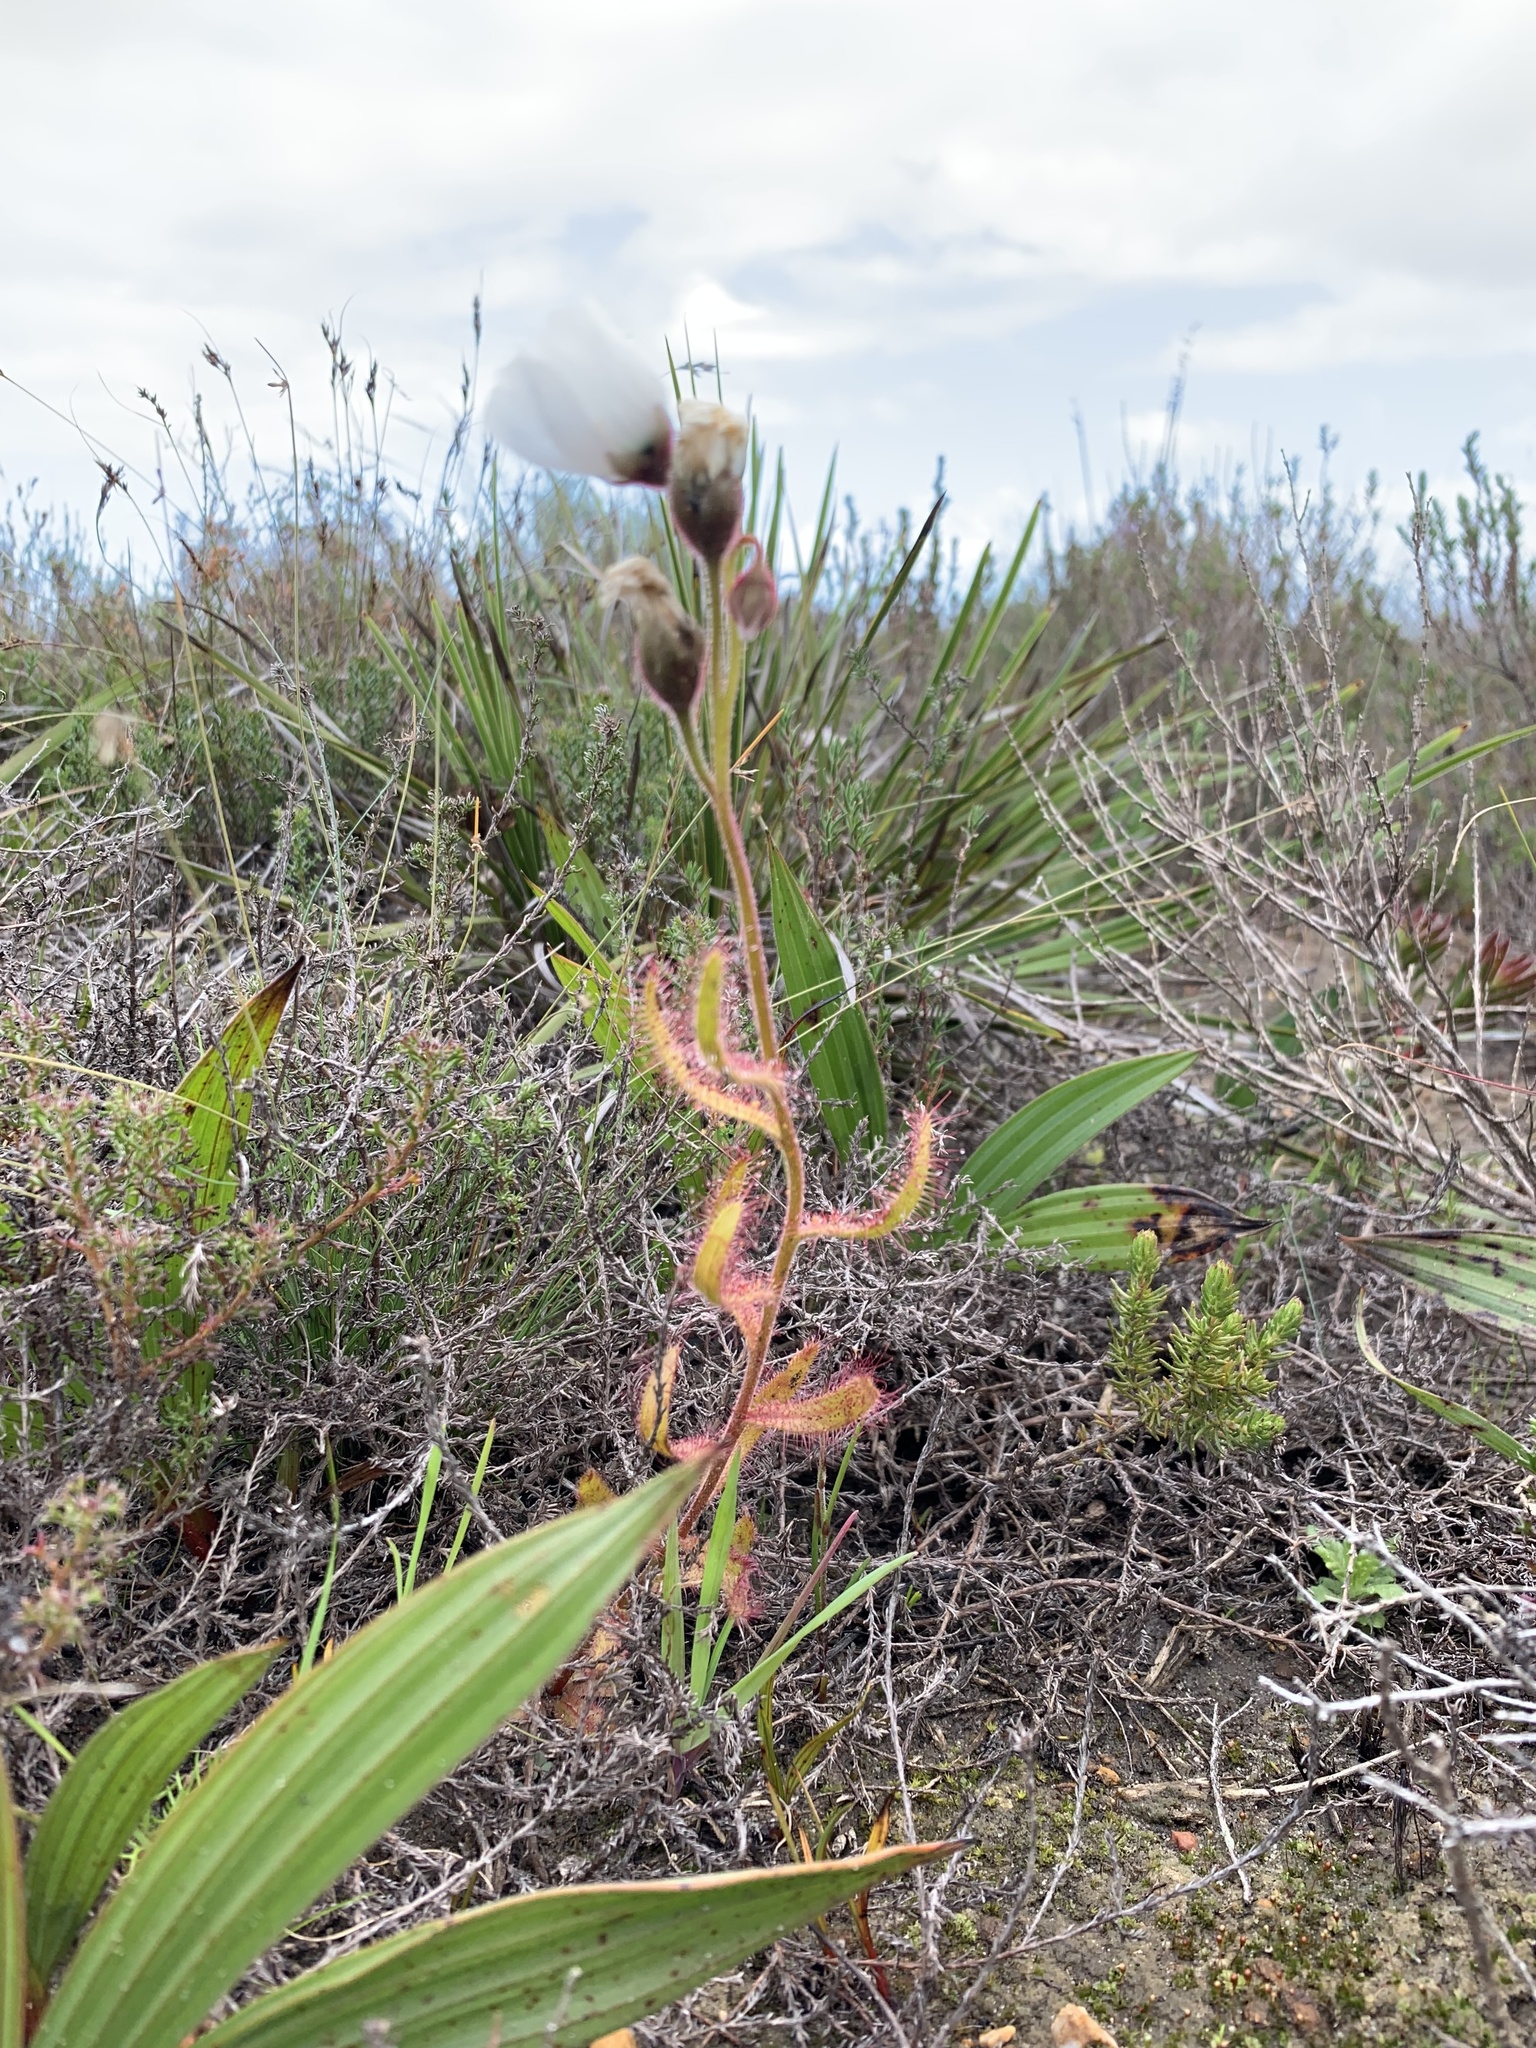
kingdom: Plantae
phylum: Tracheophyta
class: Magnoliopsida
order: Caryophyllales
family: Droseraceae
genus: Drosera
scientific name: Drosera cistiflora
